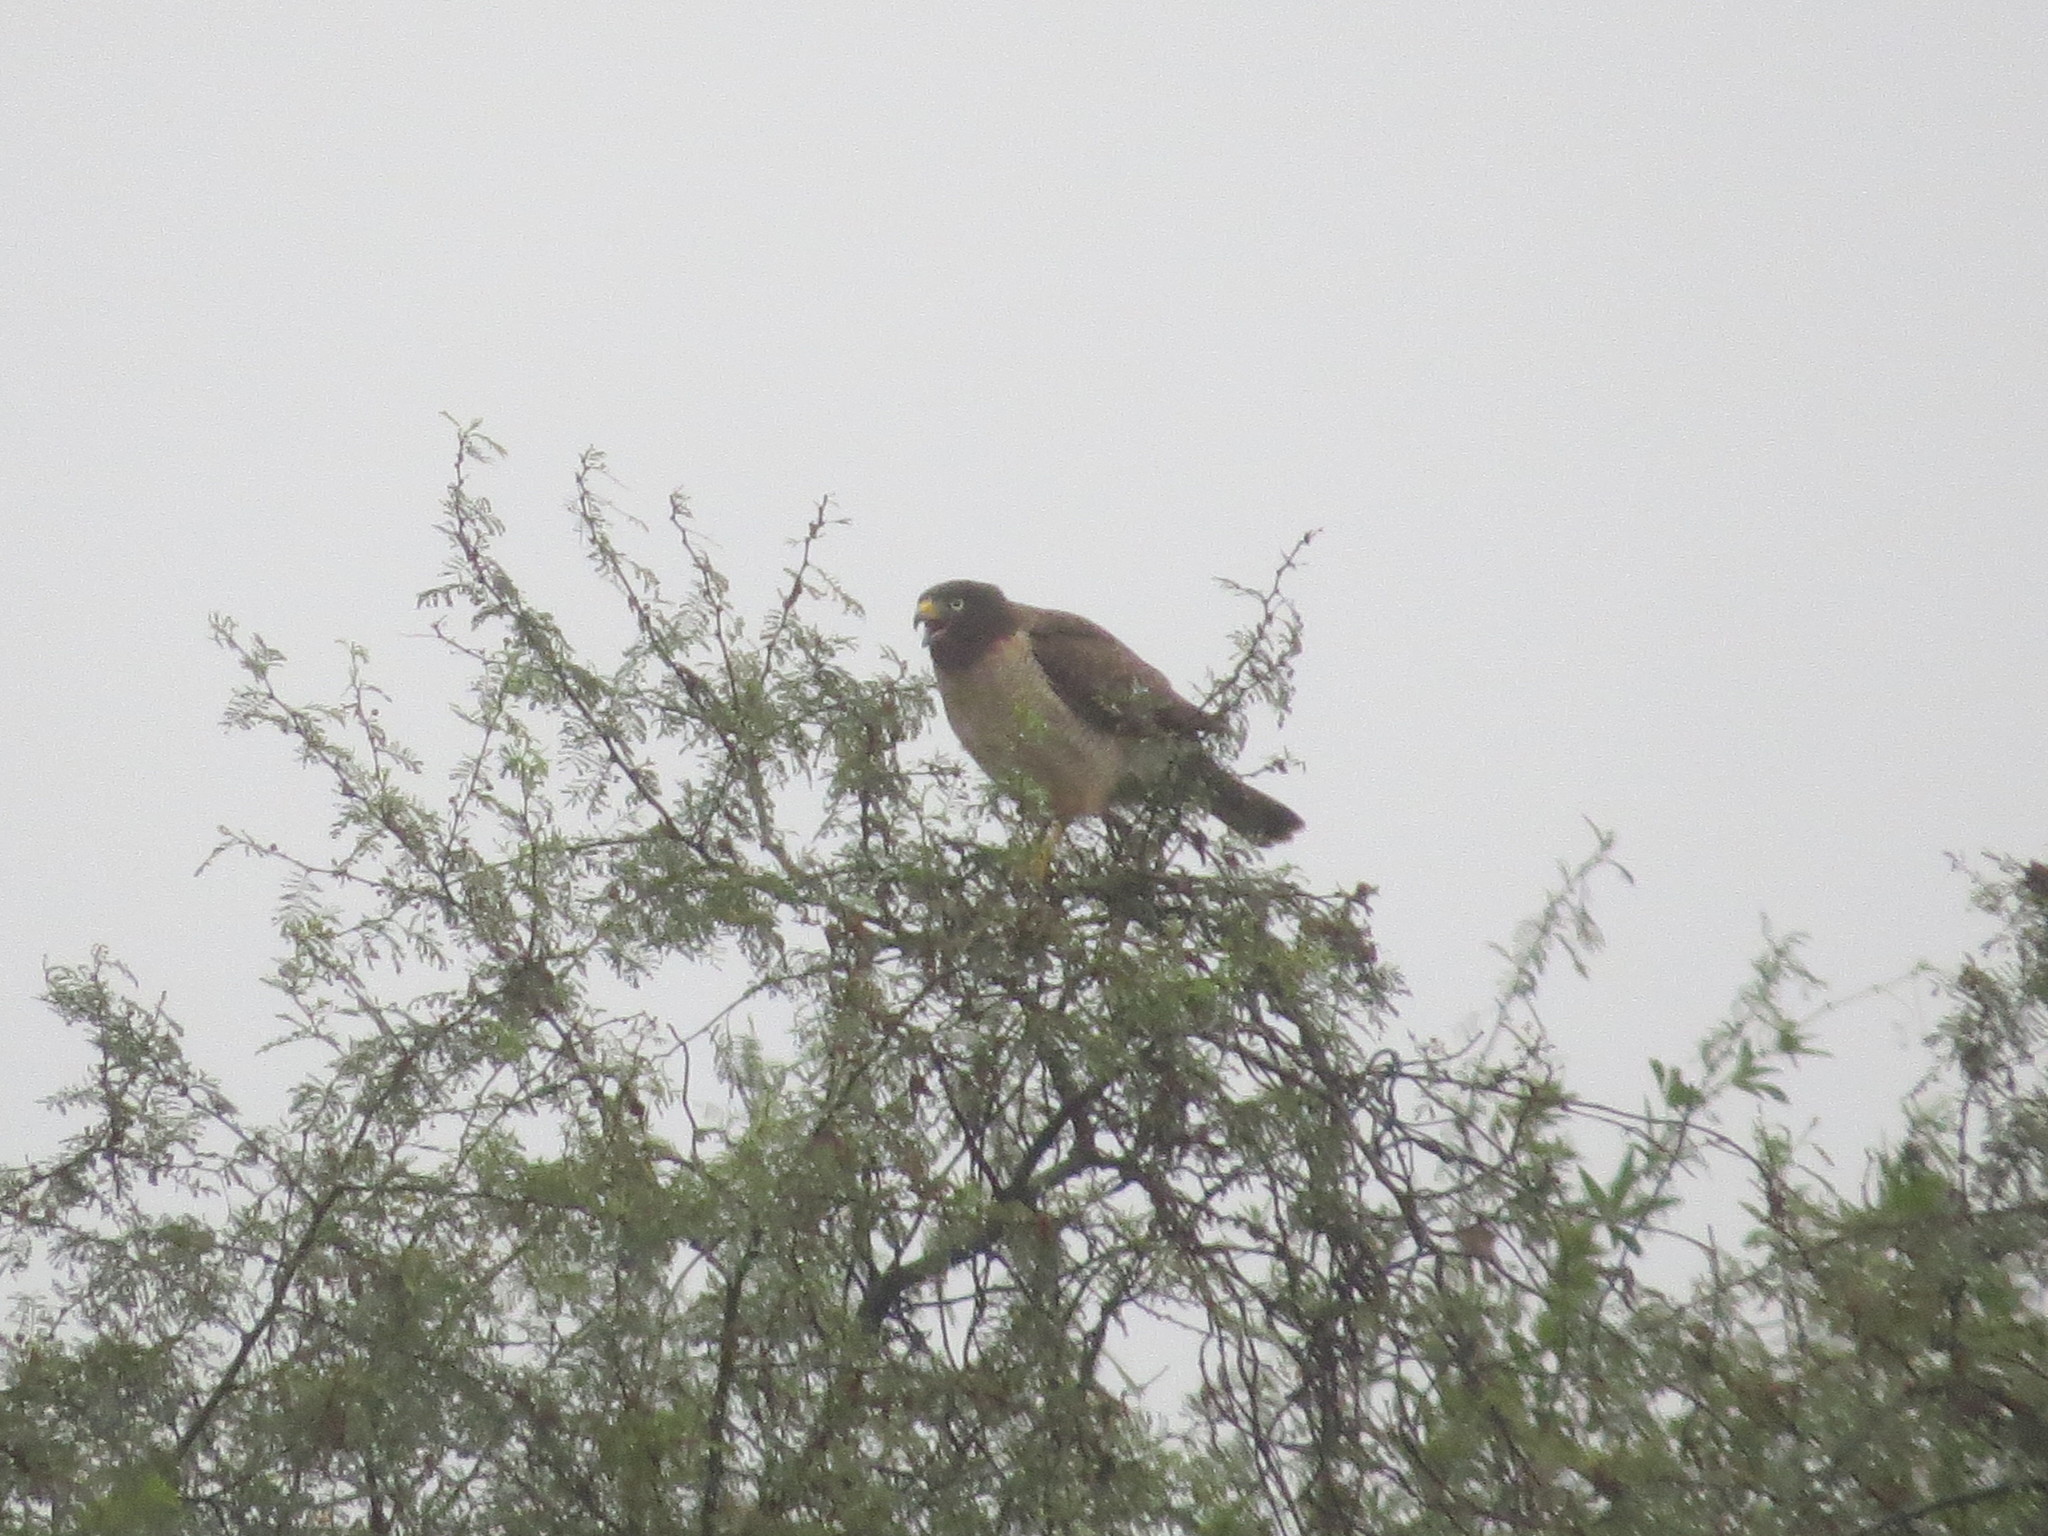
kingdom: Animalia
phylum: Chordata
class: Aves
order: Accipitriformes
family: Accipitridae
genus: Rupornis
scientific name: Rupornis magnirostris
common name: Roadside hawk
